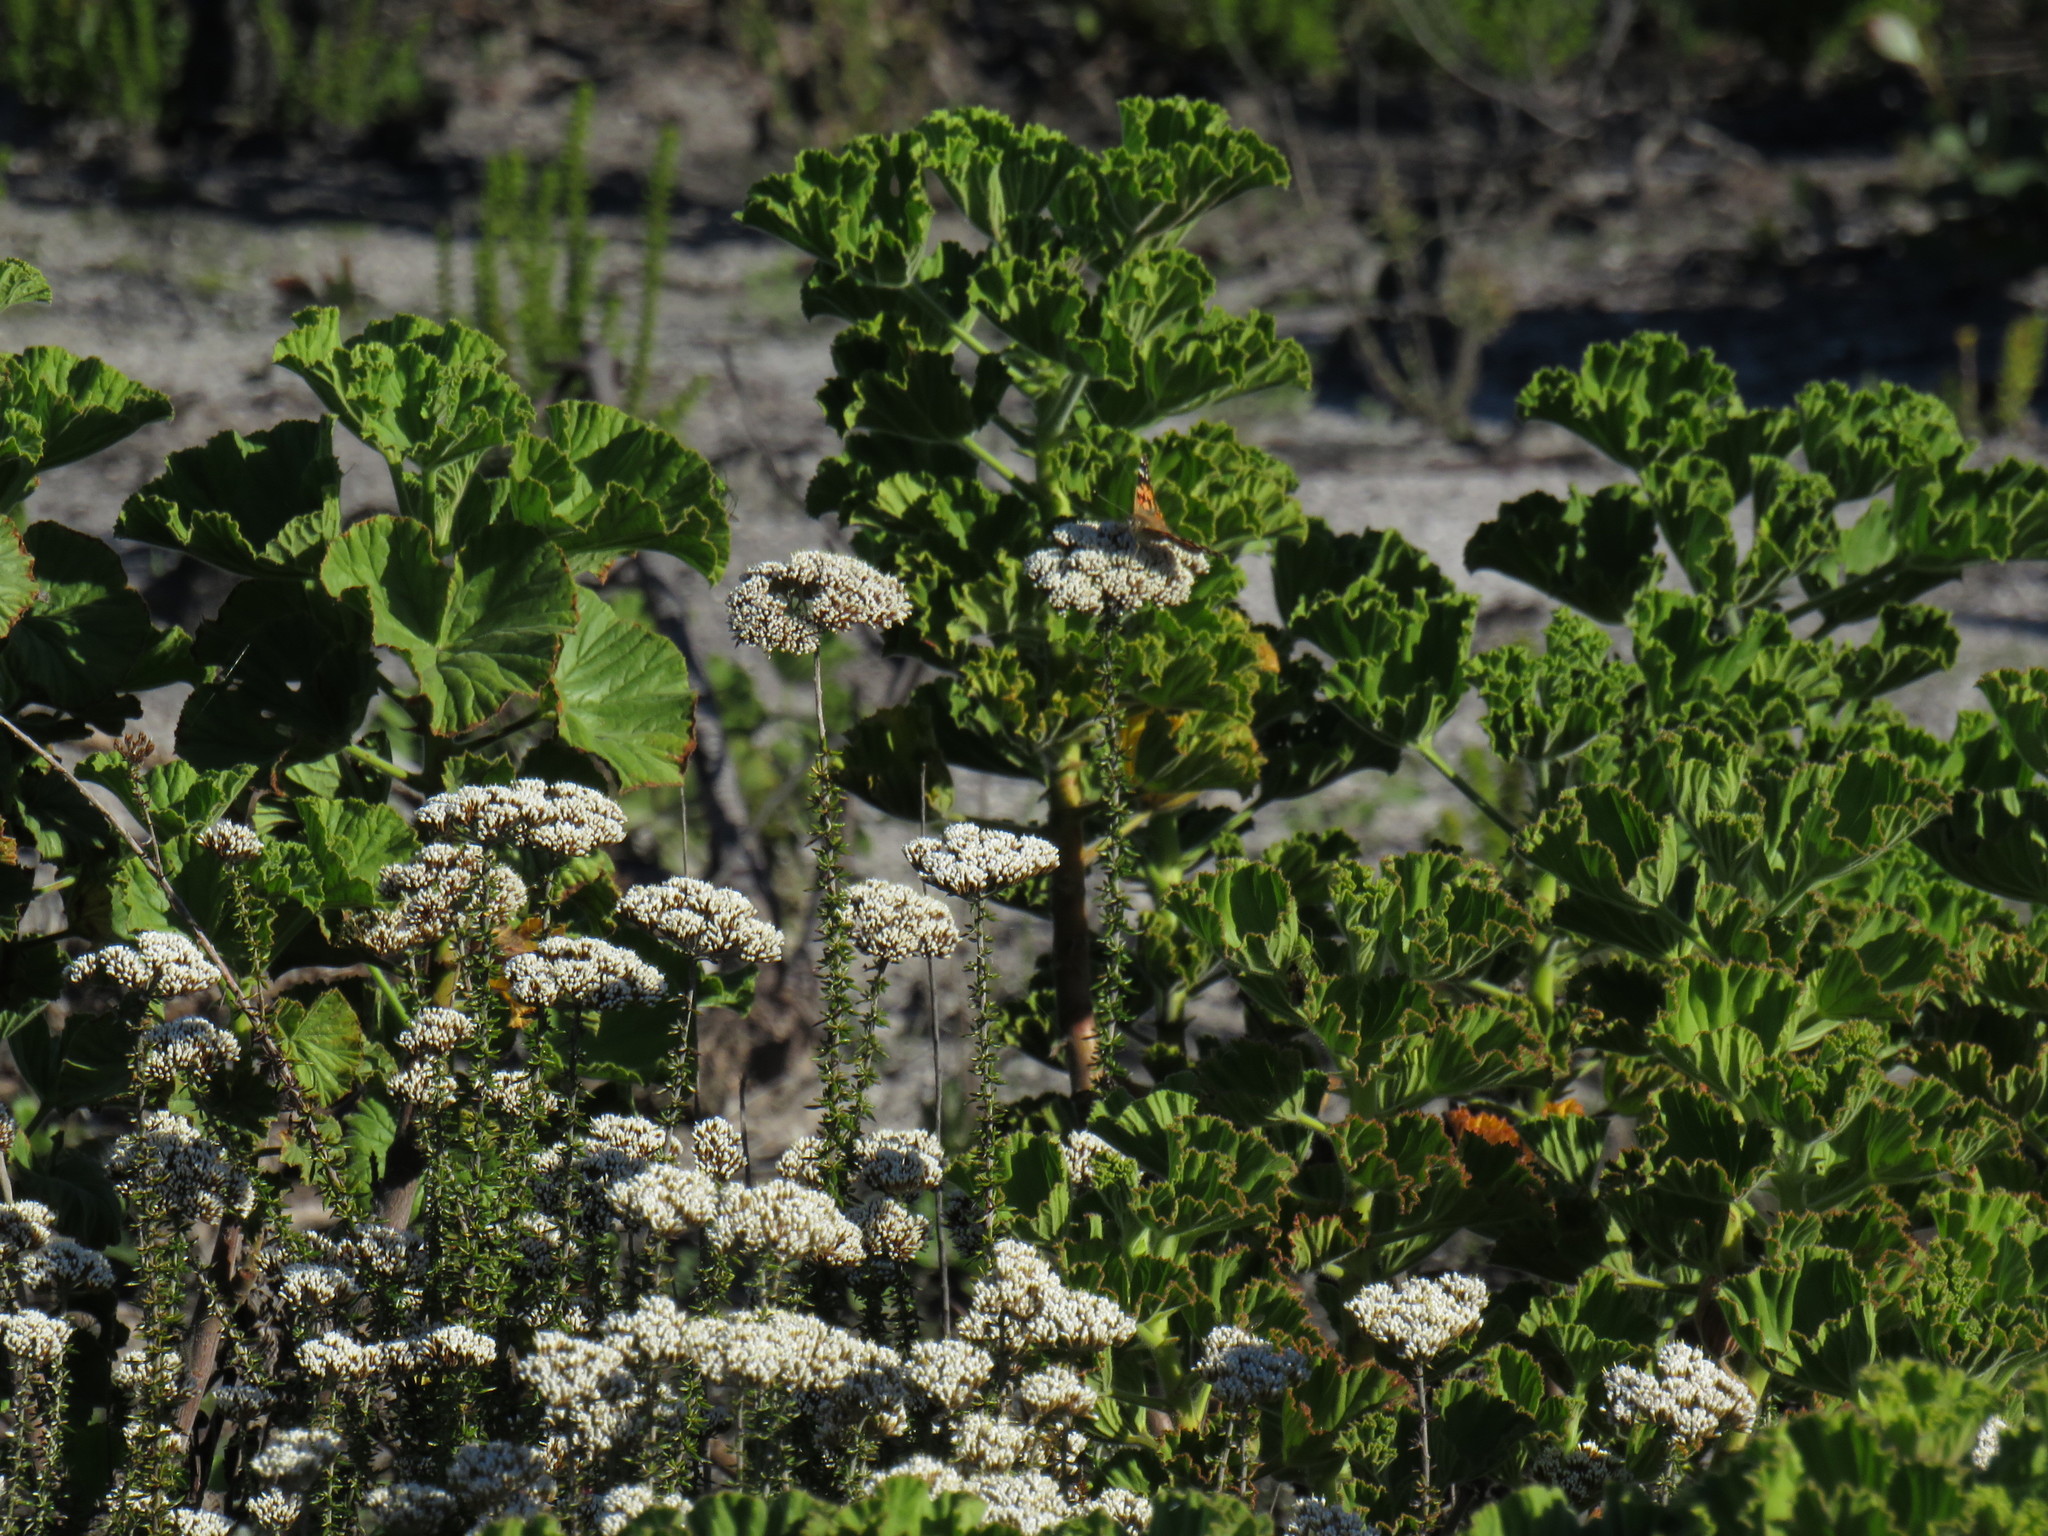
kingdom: Plantae
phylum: Tracheophyta
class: Magnoliopsida
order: Asterales
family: Asteraceae
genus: Metalasia
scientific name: Metalasia densa
